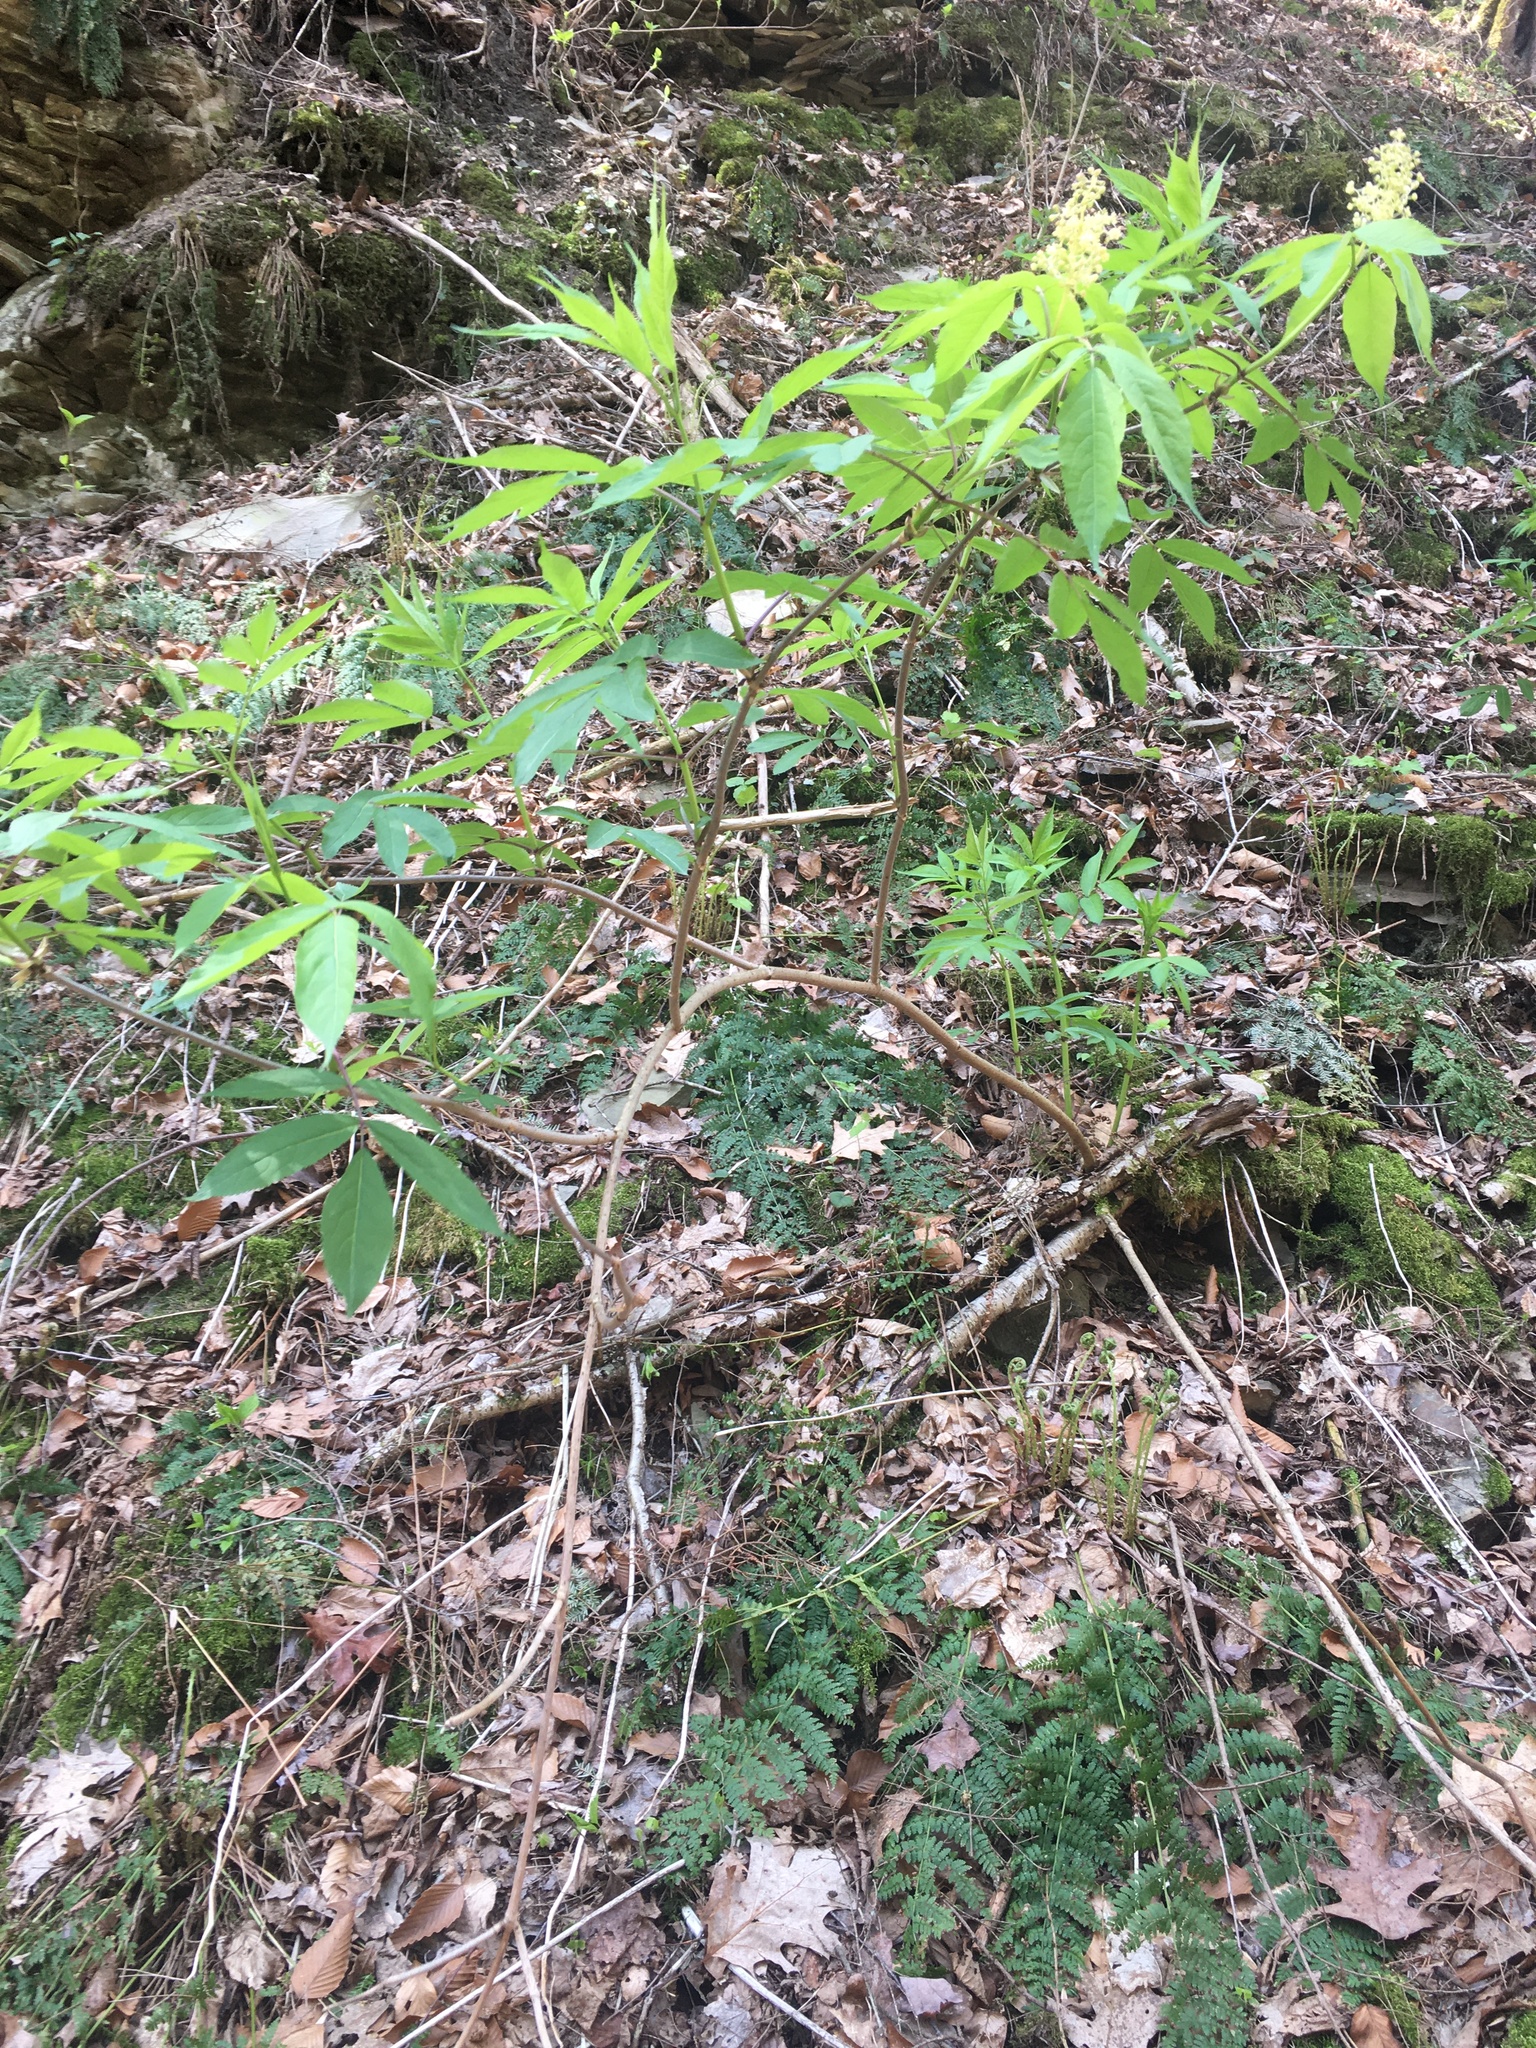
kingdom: Plantae
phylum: Tracheophyta
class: Magnoliopsida
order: Dipsacales
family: Viburnaceae
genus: Sambucus
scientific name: Sambucus racemosa
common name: Red-berried elder
